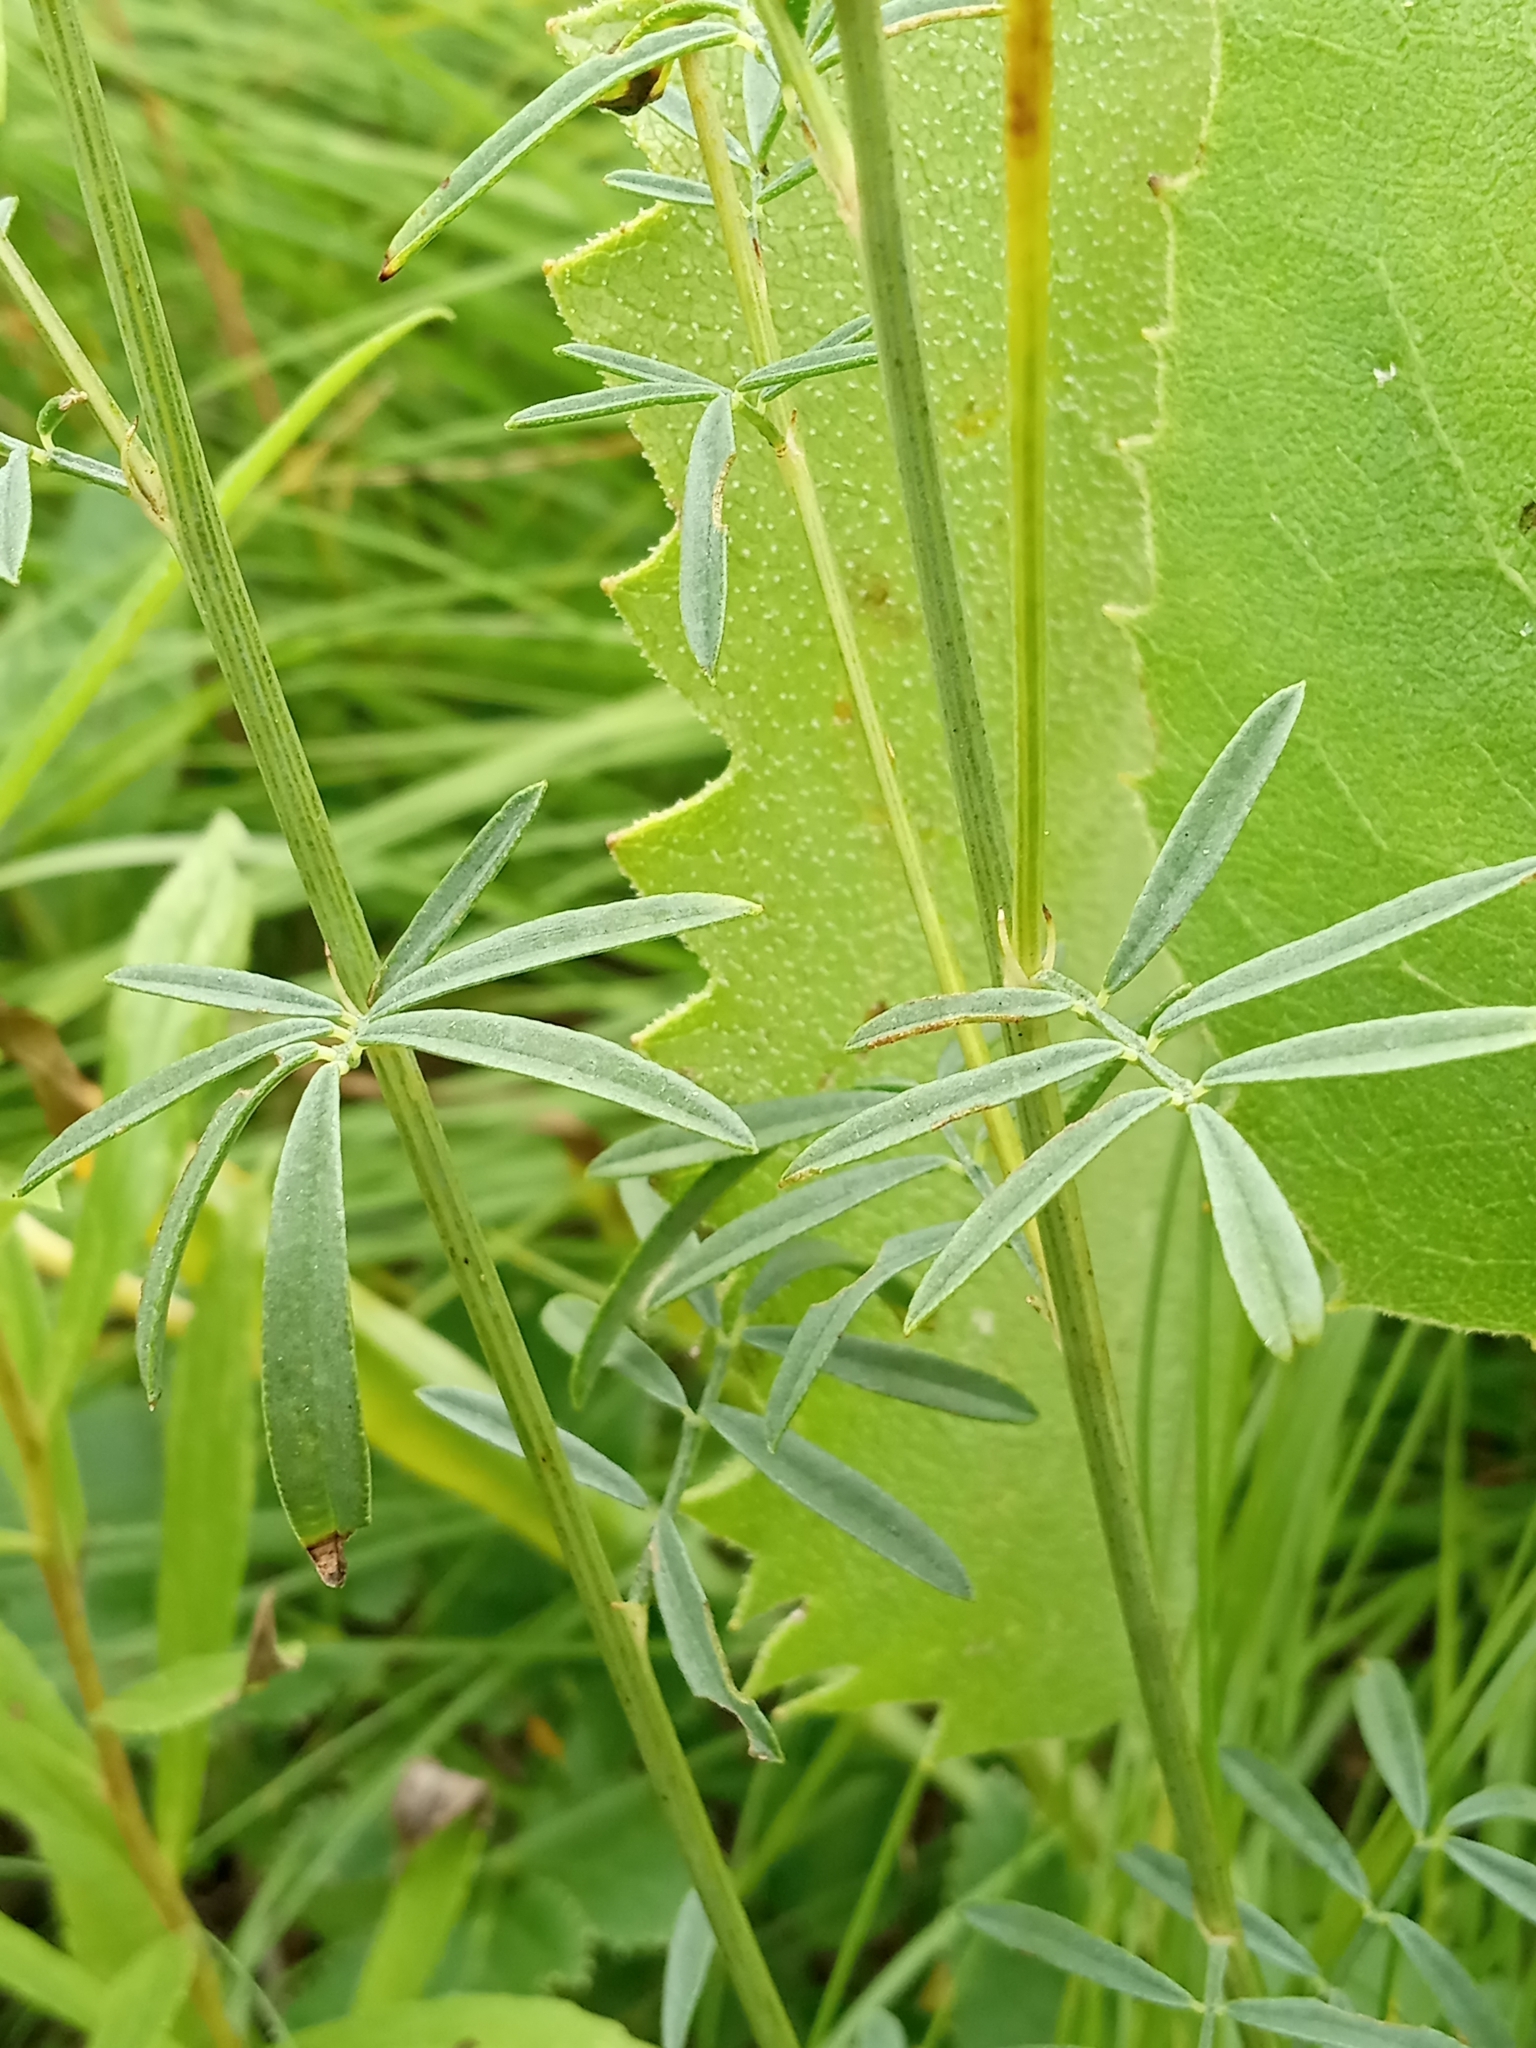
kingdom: Plantae
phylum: Tracheophyta
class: Magnoliopsida
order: Fabales
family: Fabaceae
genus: Dalea
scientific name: Dalea candida
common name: White prairie-clover
